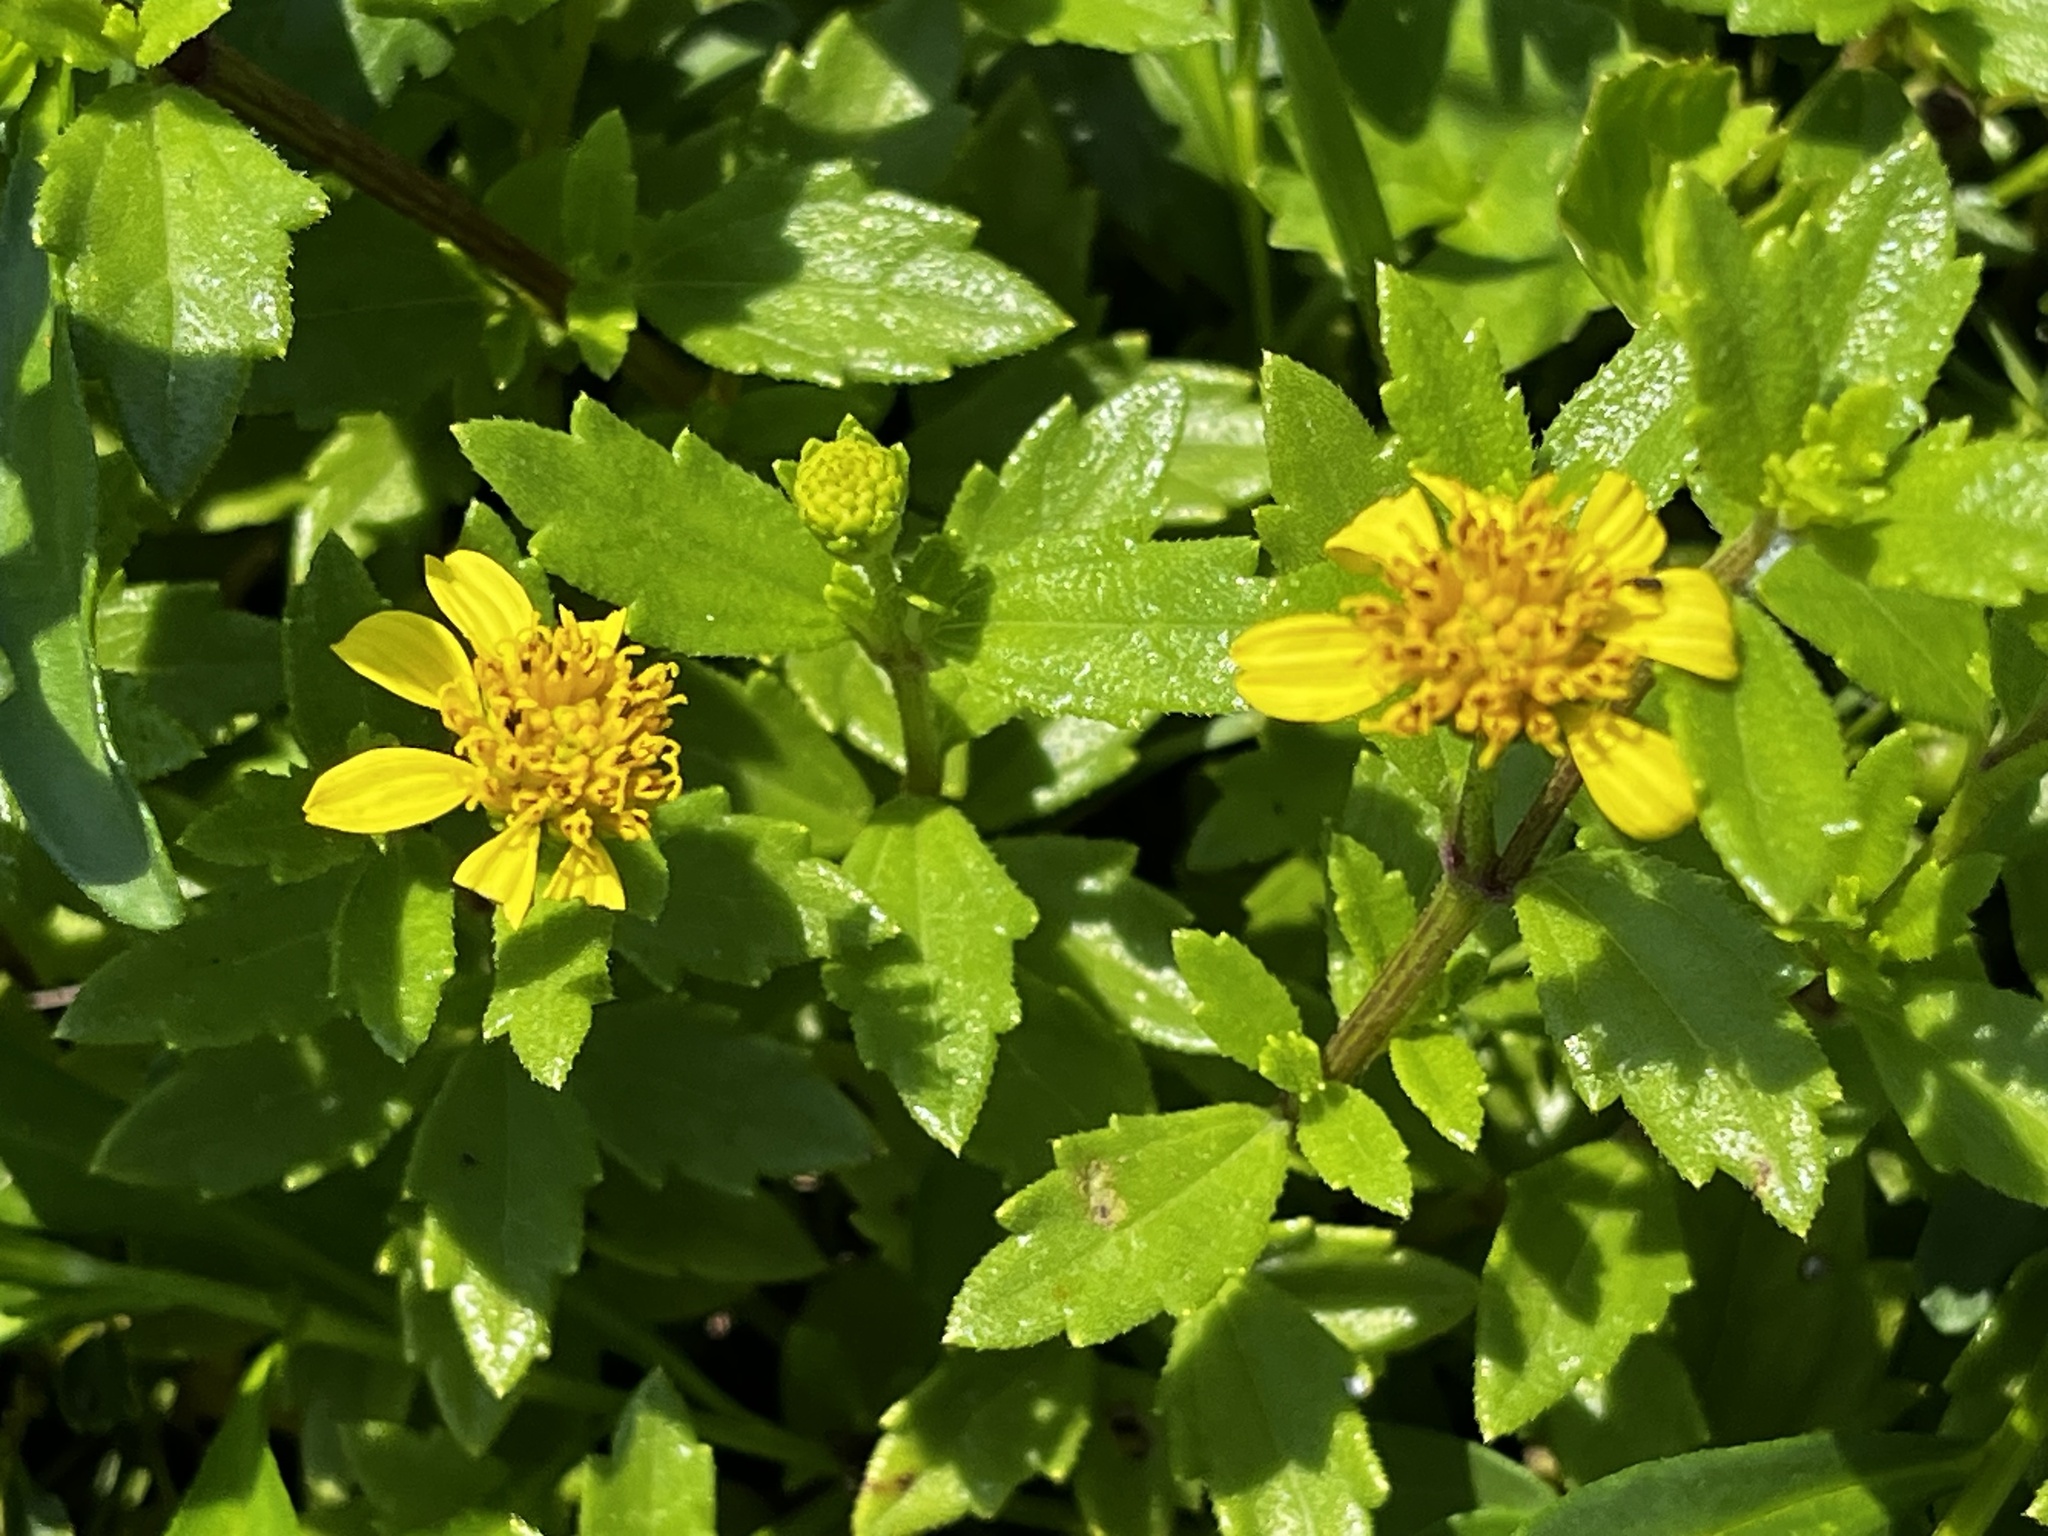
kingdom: Plantae
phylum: Tracheophyta
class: Magnoliopsida
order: Asterales
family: Asteraceae
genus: Melanthera
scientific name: Melanthera prostrata
